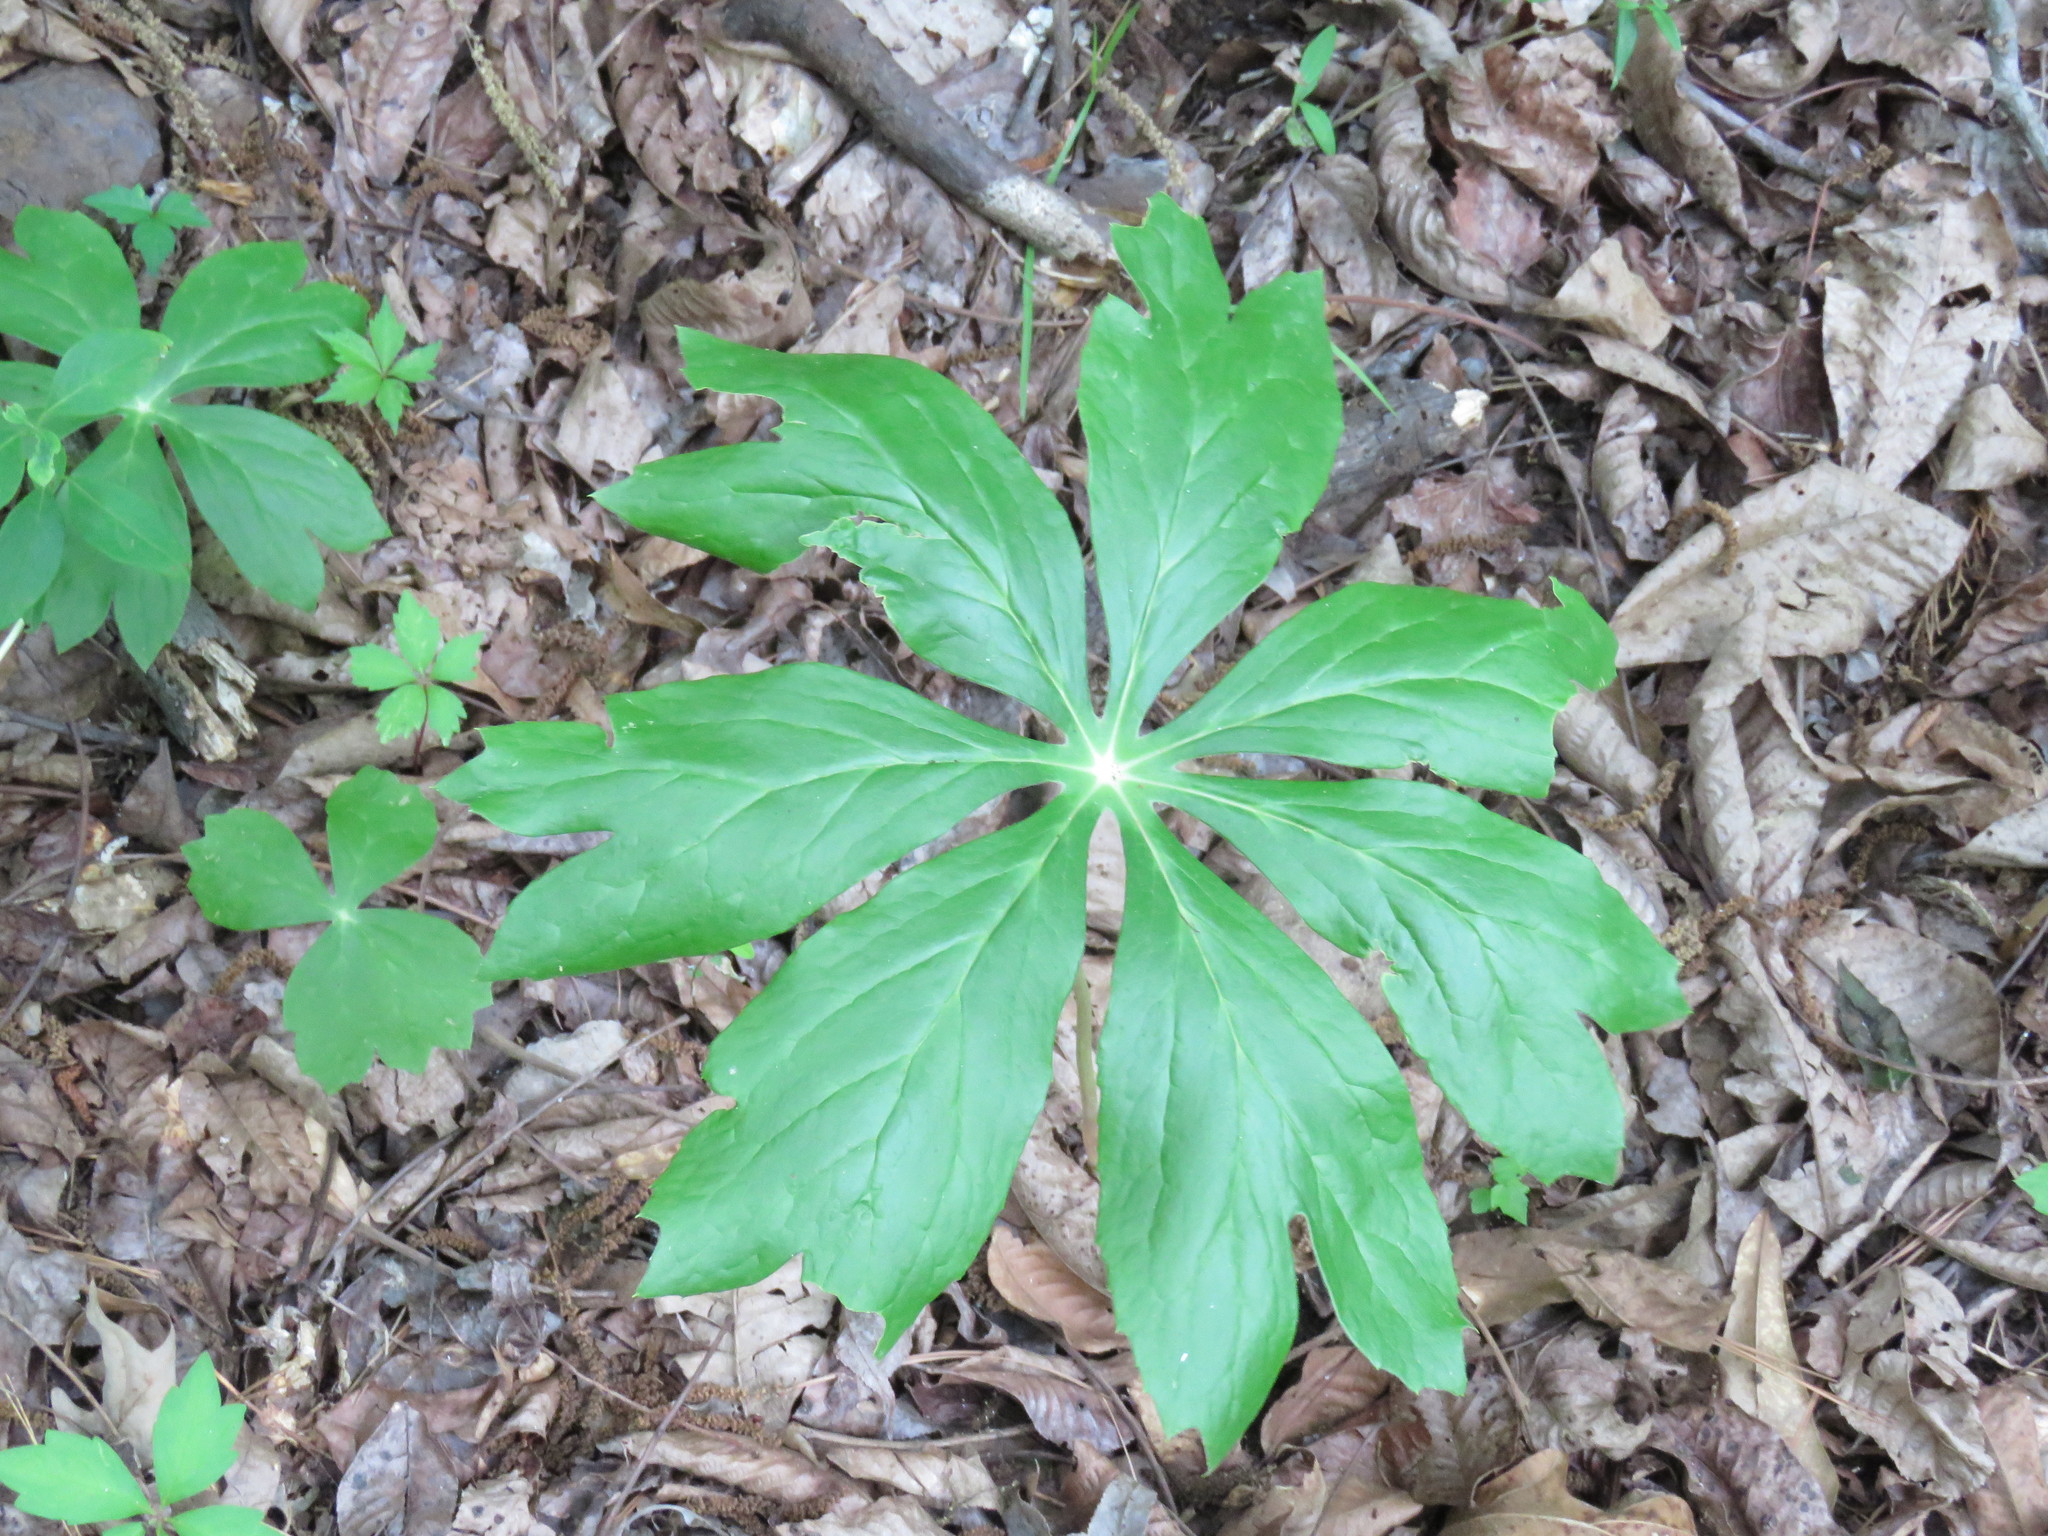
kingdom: Plantae
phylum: Tracheophyta
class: Magnoliopsida
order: Ranunculales
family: Berberidaceae
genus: Podophyllum
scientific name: Podophyllum peltatum
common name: Wild mandrake
